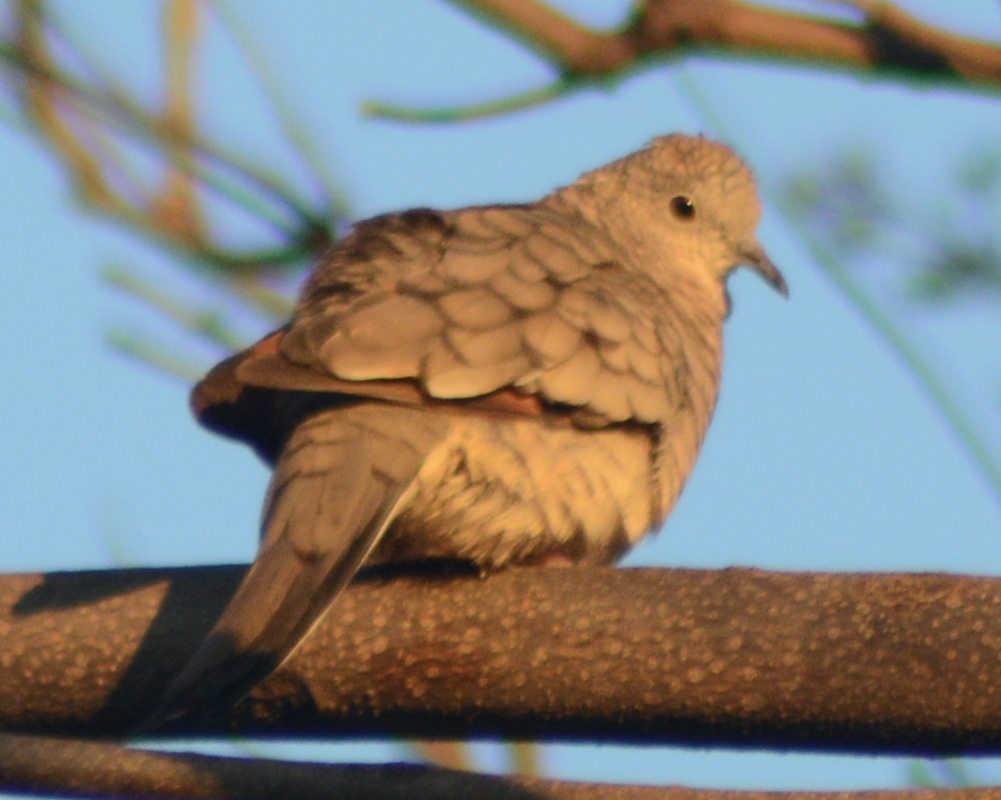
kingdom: Animalia
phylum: Chordata
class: Aves
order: Columbiformes
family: Columbidae
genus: Columbina
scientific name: Columbina inca
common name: Inca dove
